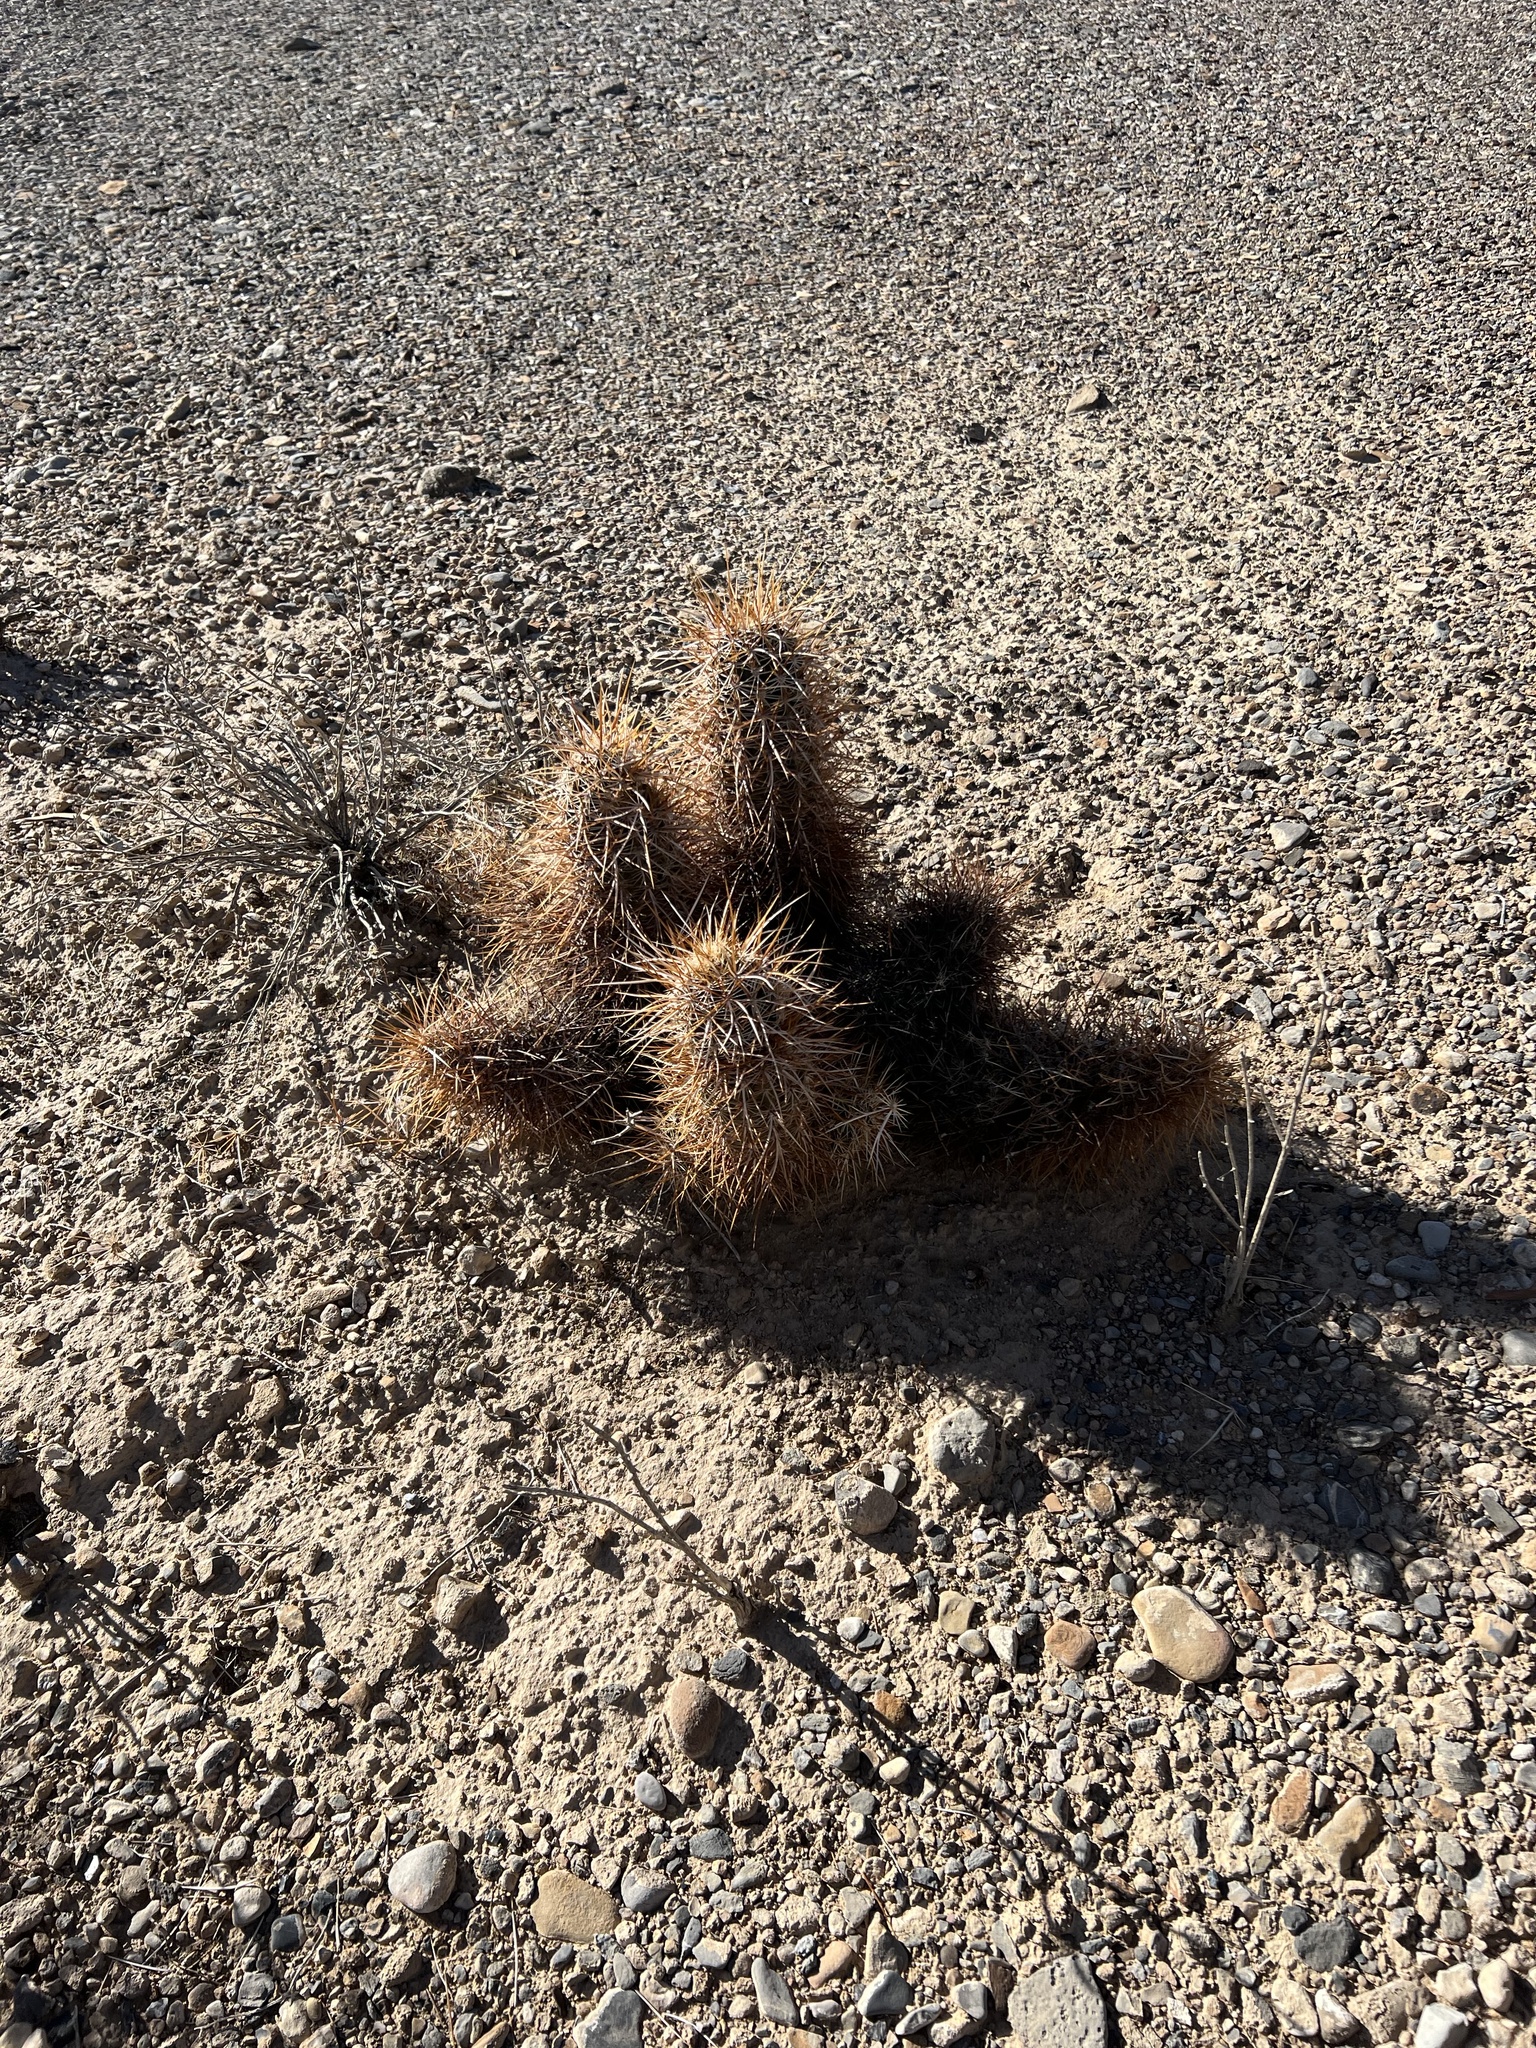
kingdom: Plantae
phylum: Tracheophyta
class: Magnoliopsida
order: Caryophyllales
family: Cactaceae
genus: Echinocereus
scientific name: Echinocereus engelmannii
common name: Engelmann's hedgehog cactus
